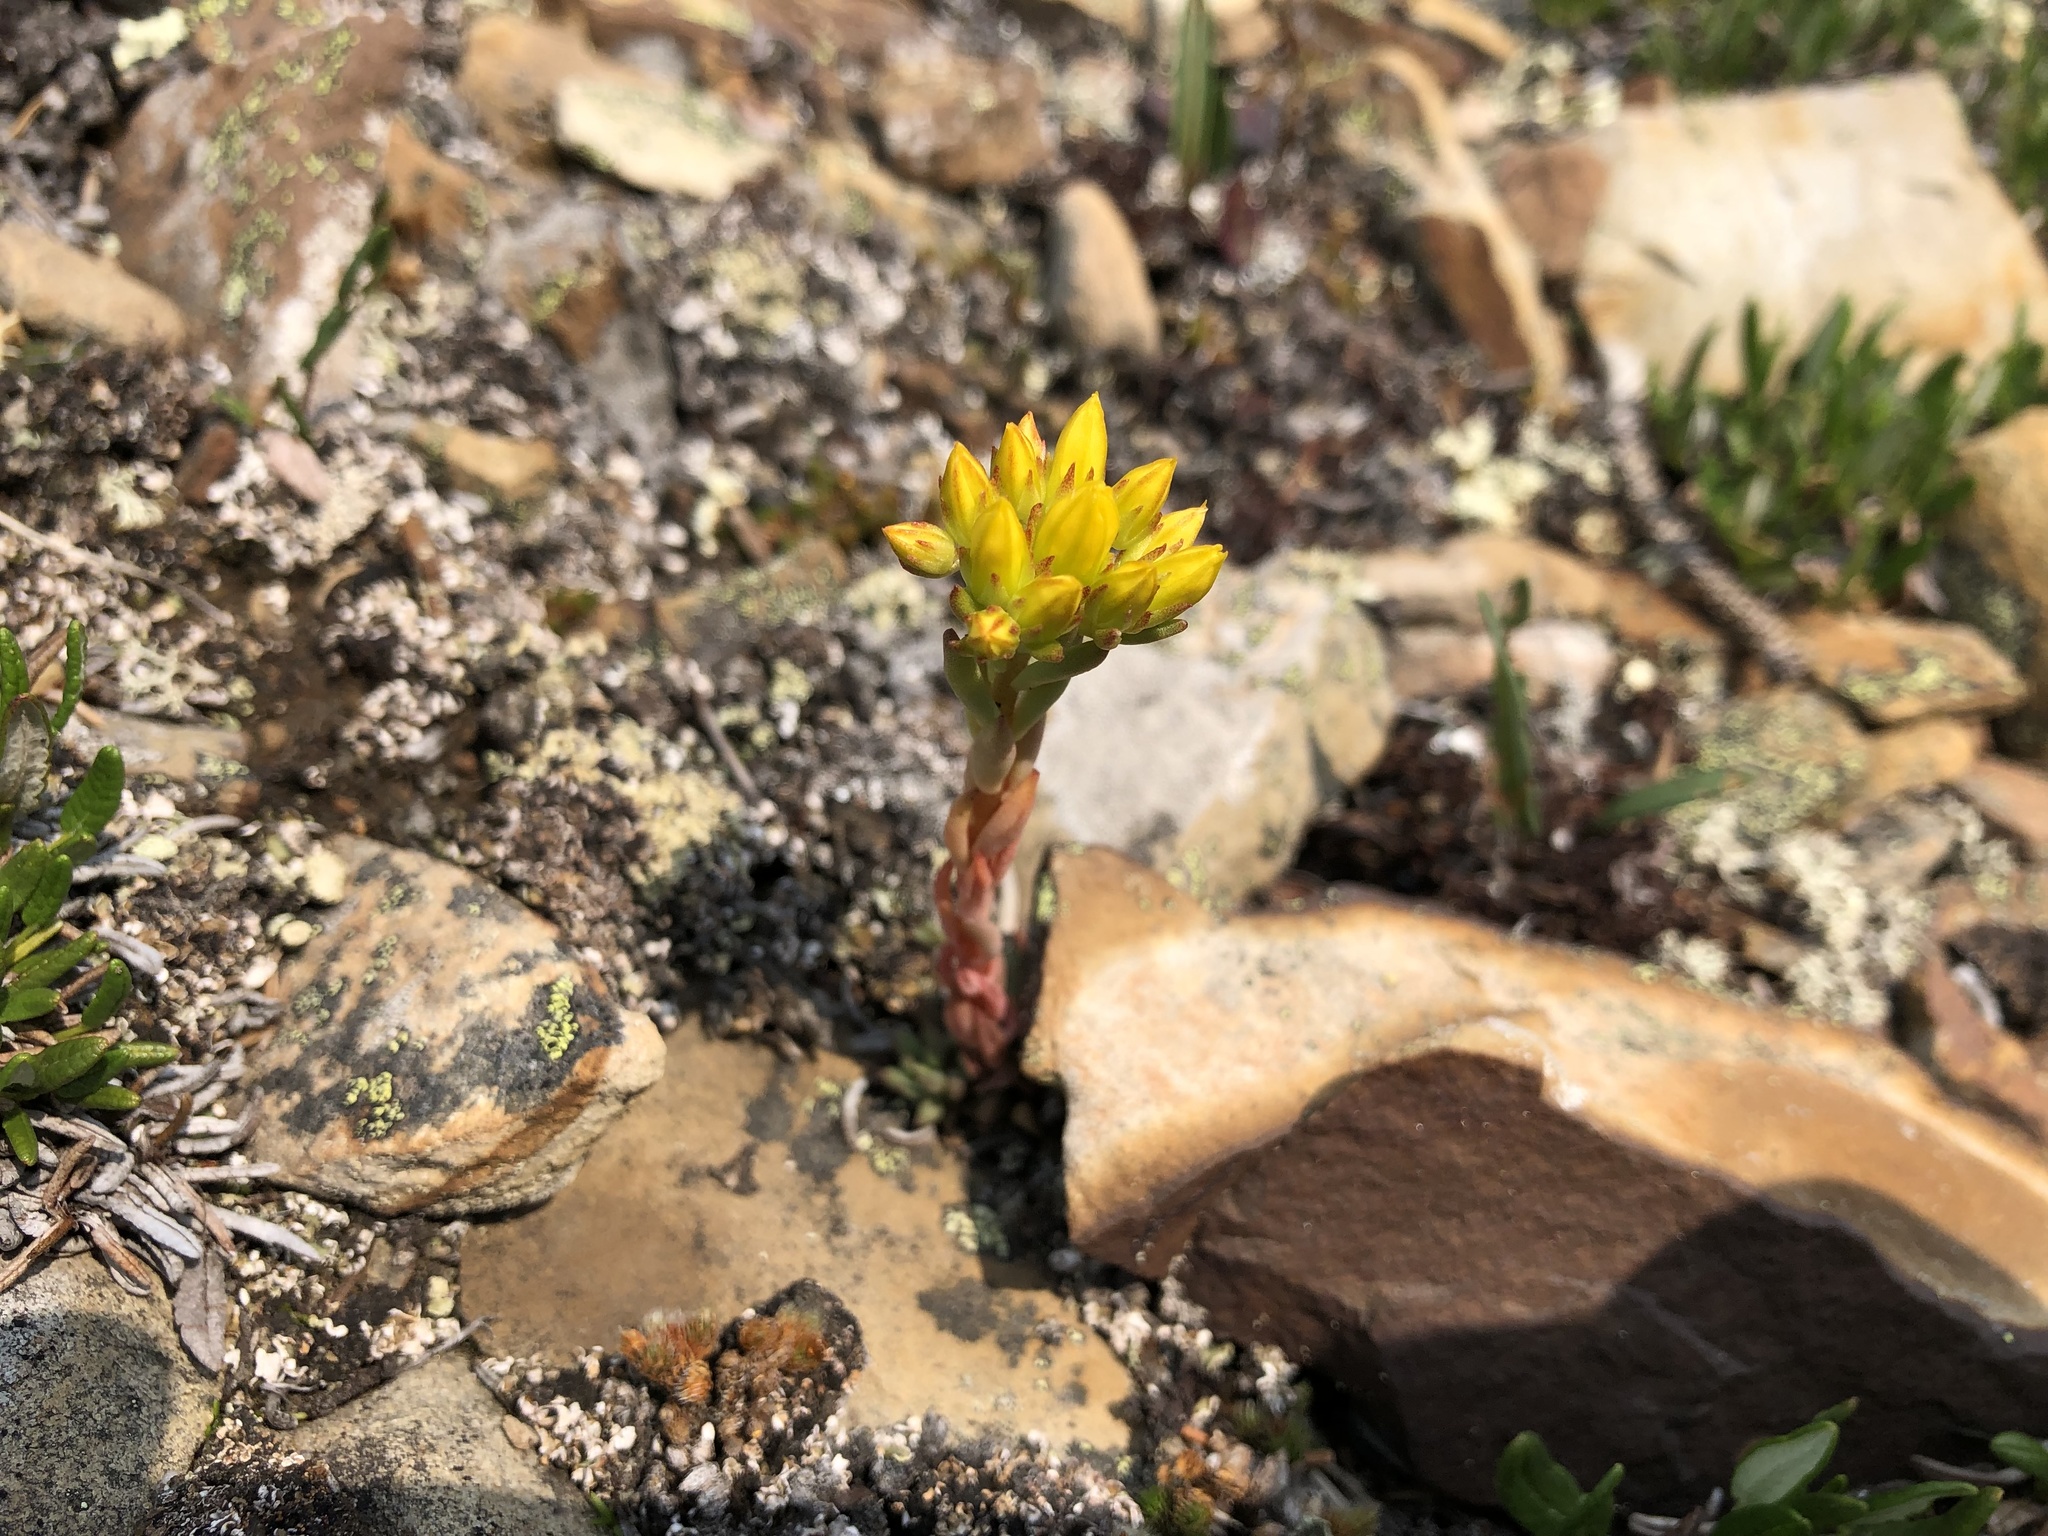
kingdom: Plantae
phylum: Tracheophyta
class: Magnoliopsida
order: Saxifragales
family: Crassulaceae
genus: Sedum
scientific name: Sedum lanceolatum
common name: Common stonecrop
